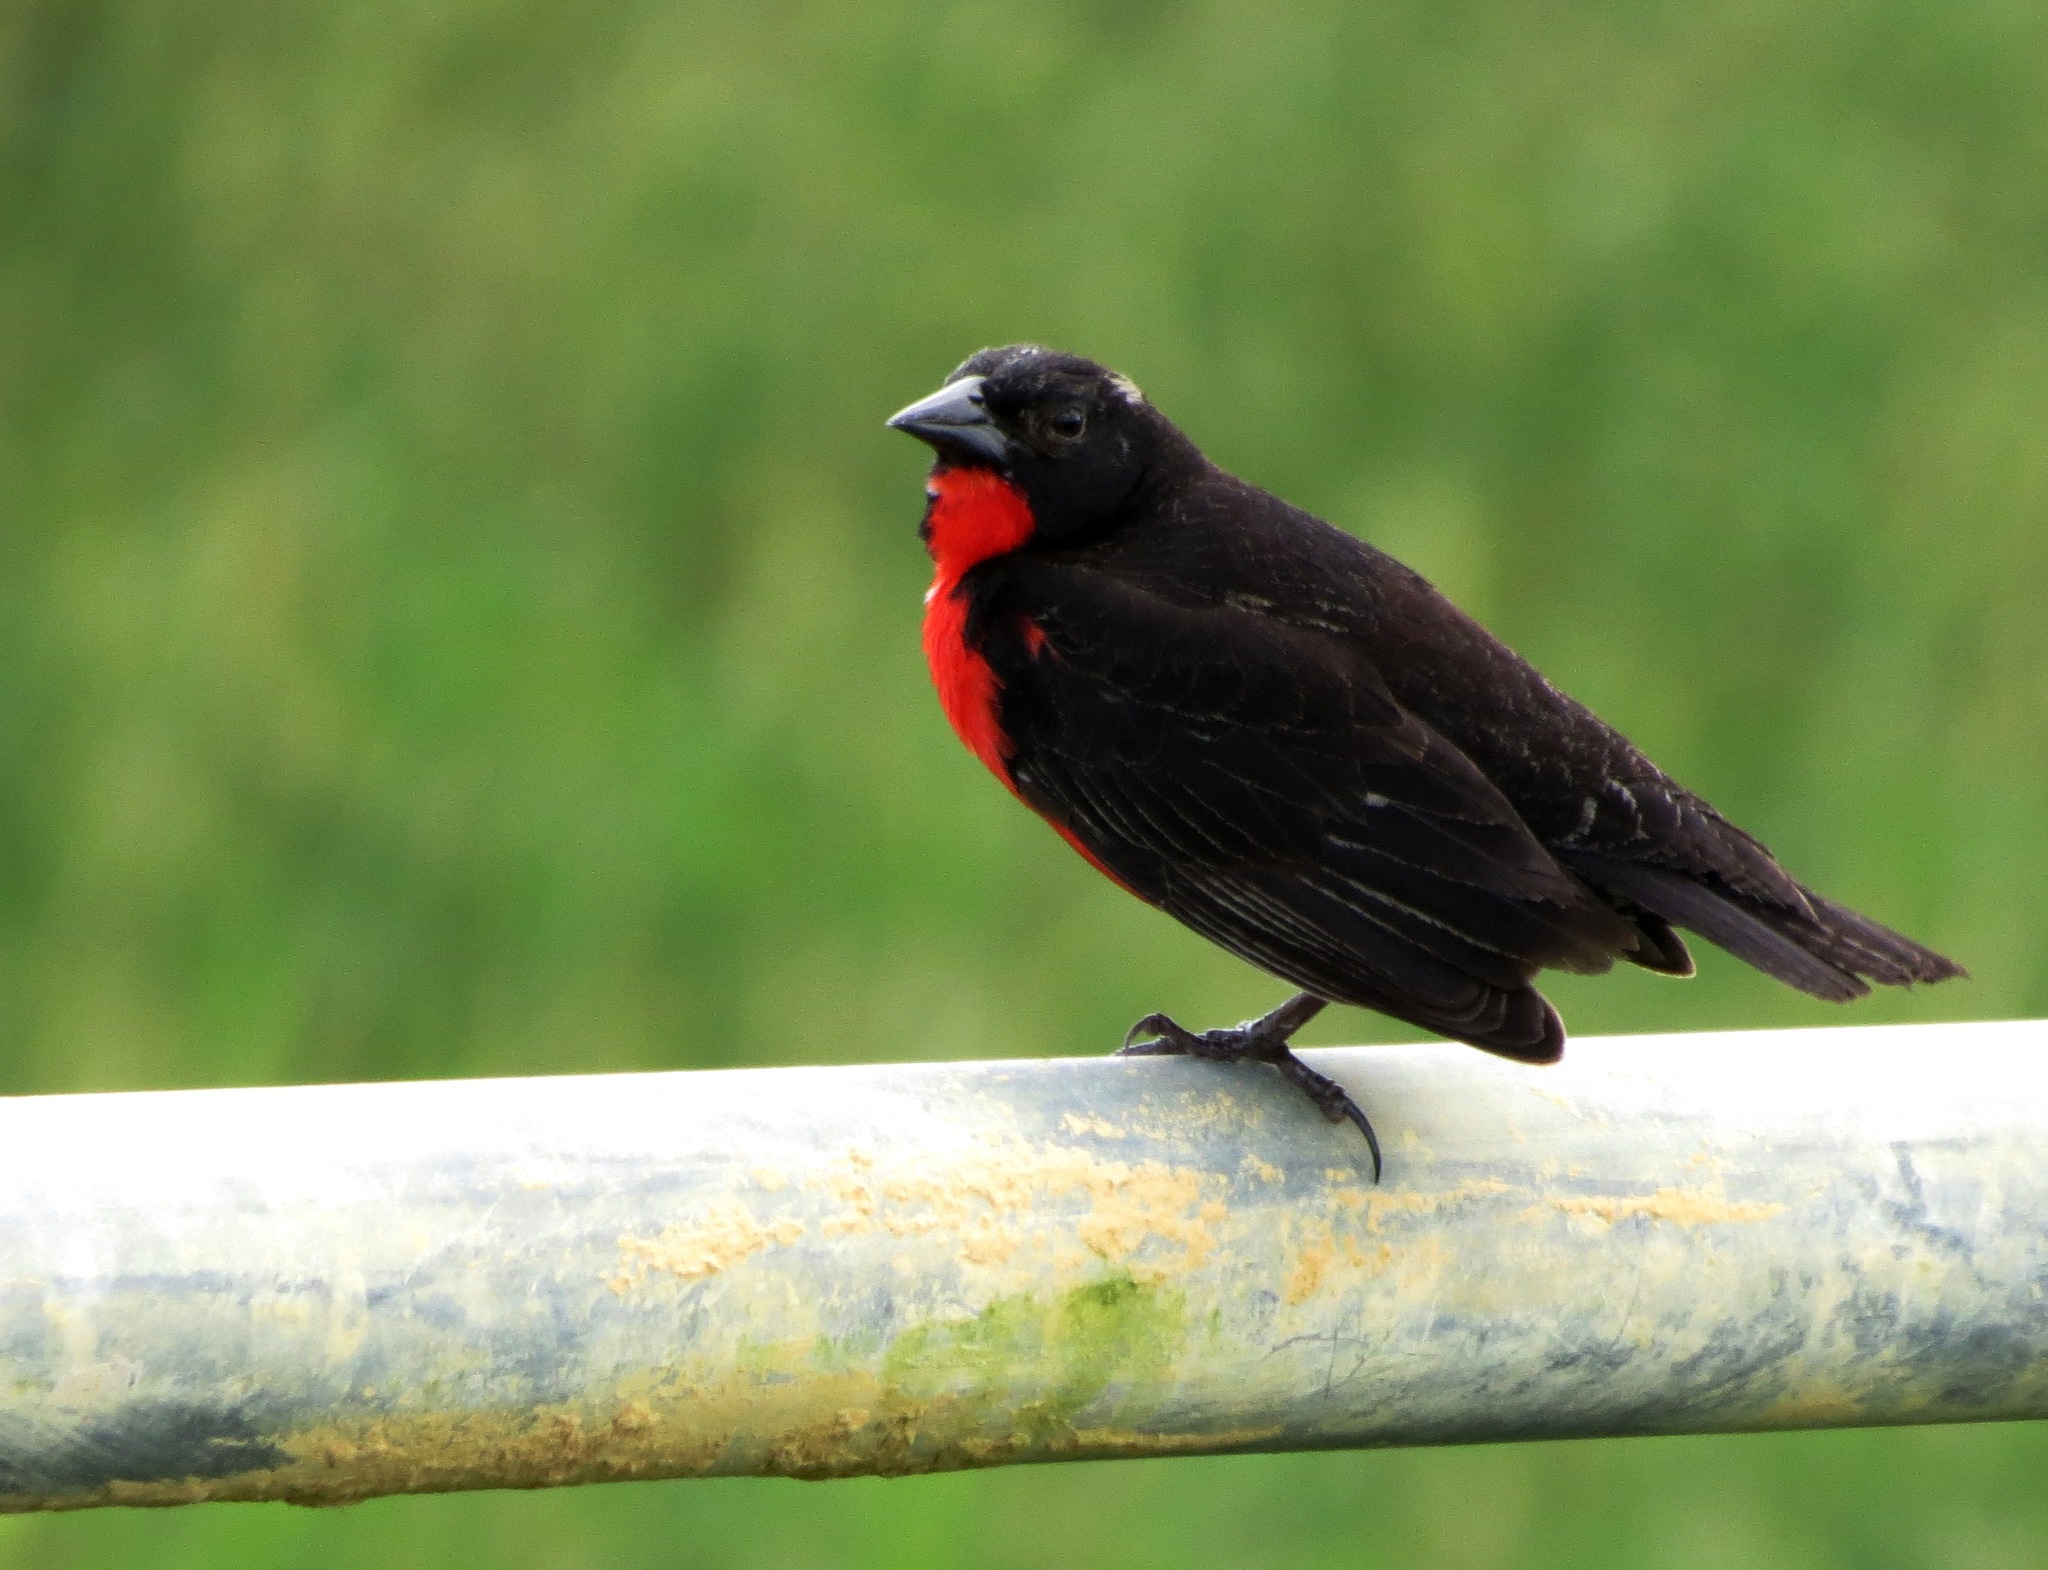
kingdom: Animalia
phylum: Chordata
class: Aves
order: Passeriformes
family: Icteridae
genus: Sturnella
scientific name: Sturnella militaris
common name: Red-breasted blackbird
